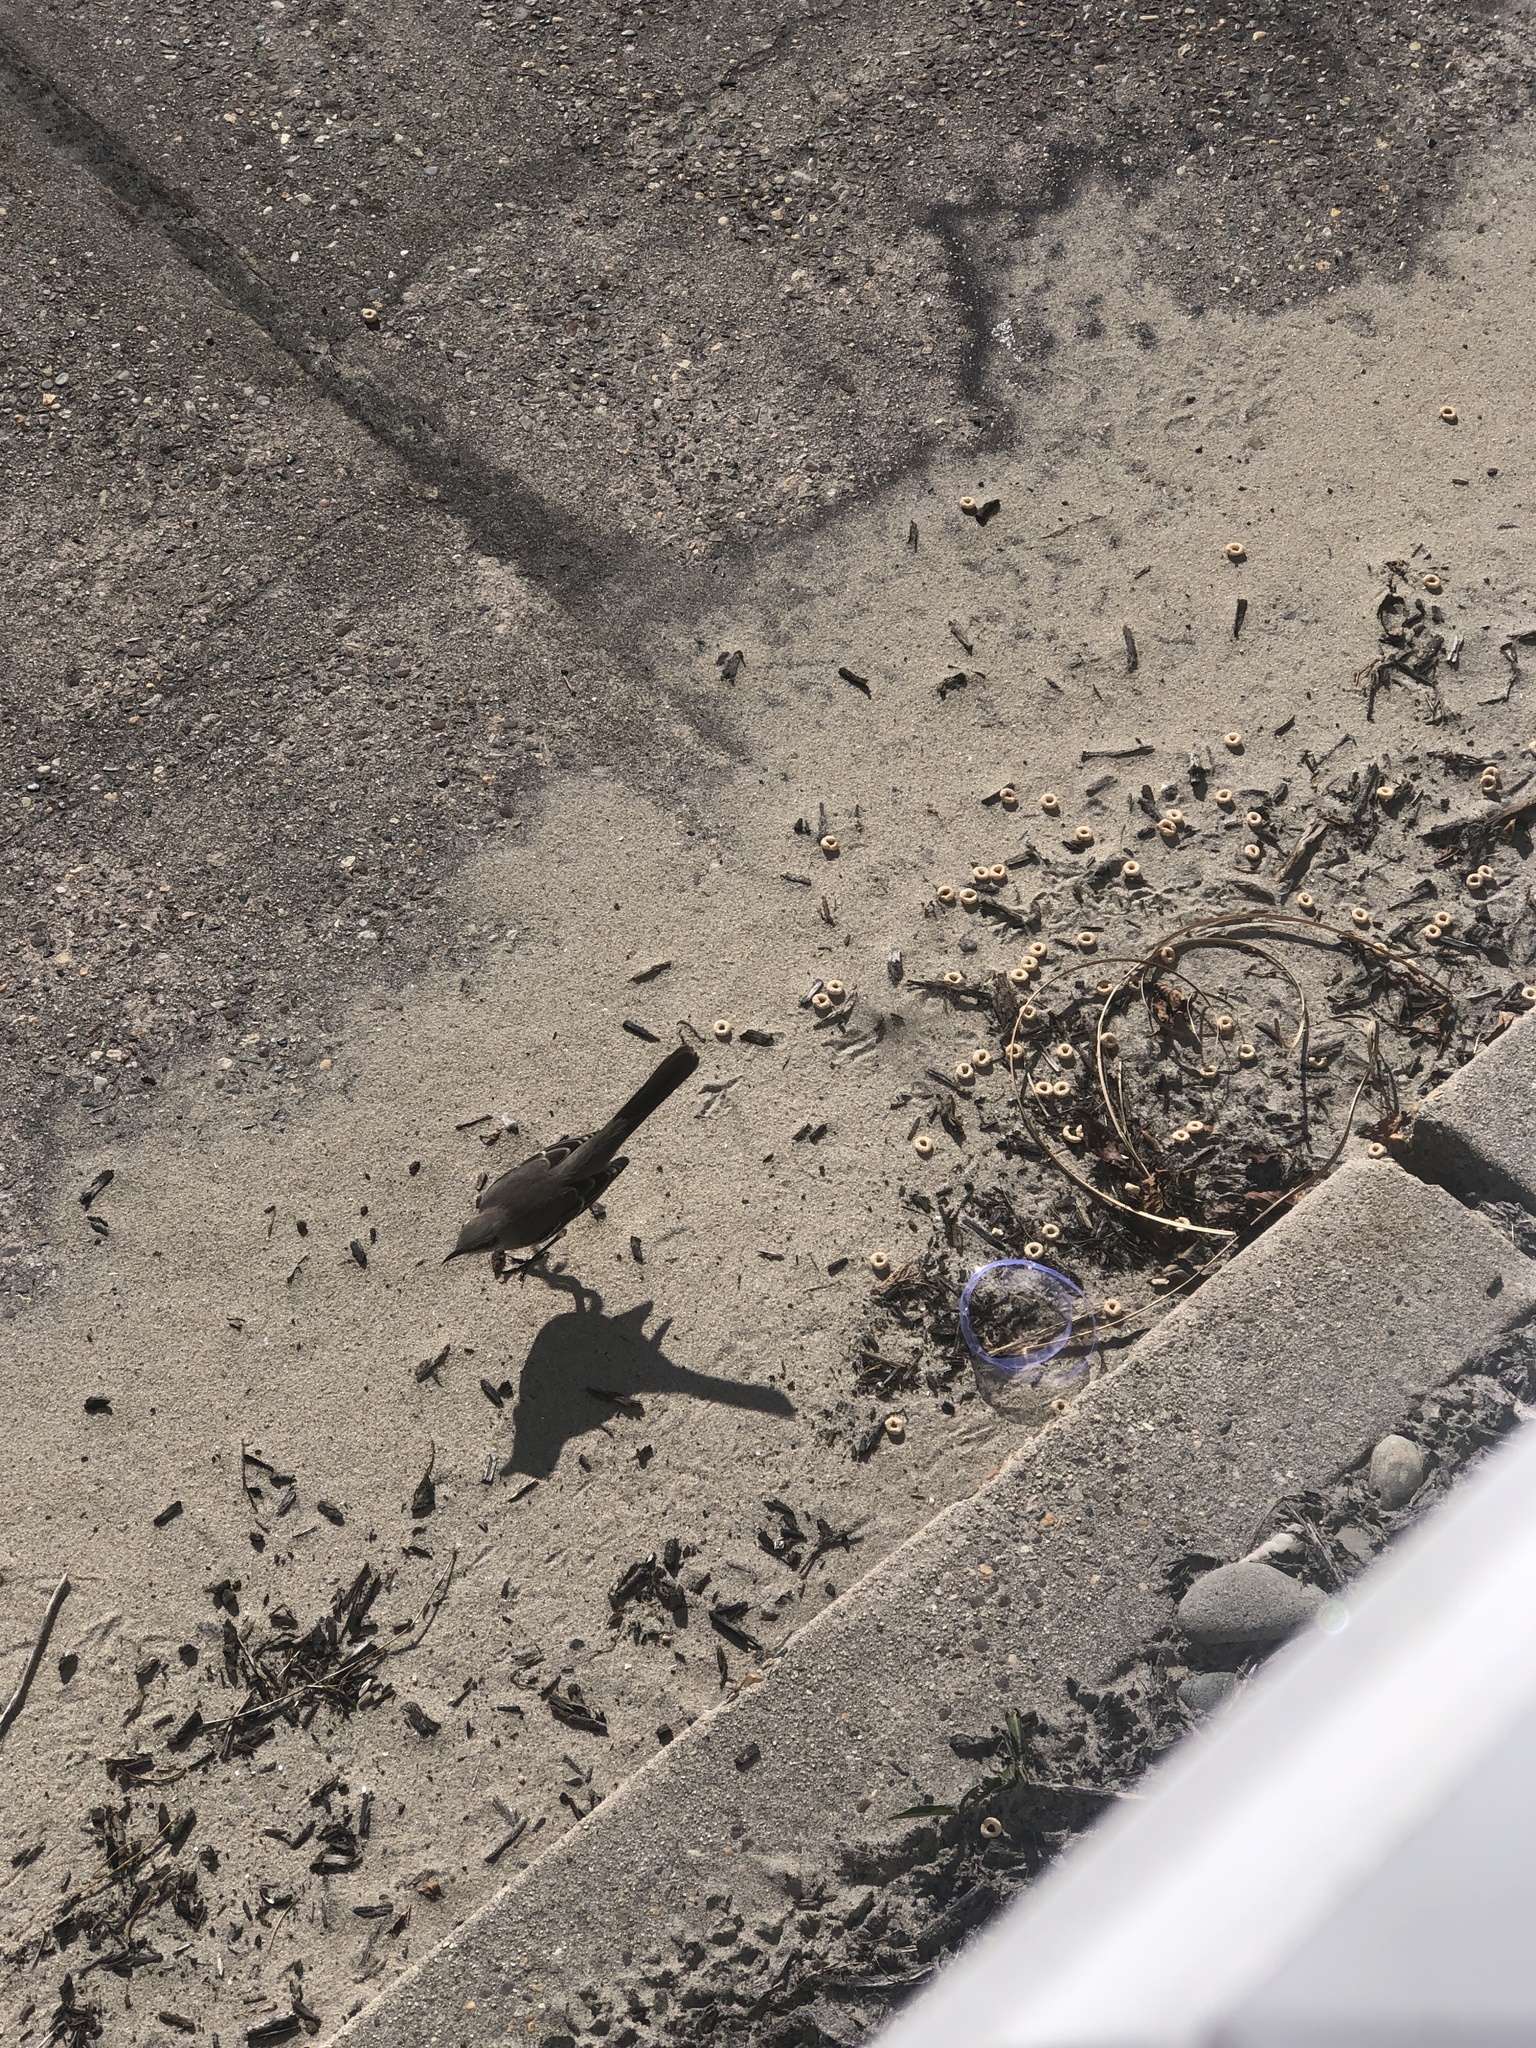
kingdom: Animalia
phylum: Chordata
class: Aves
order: Passeriformes
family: Mimidae
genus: Mimus
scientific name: Mimus polyglottos
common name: Northern mockingbird
